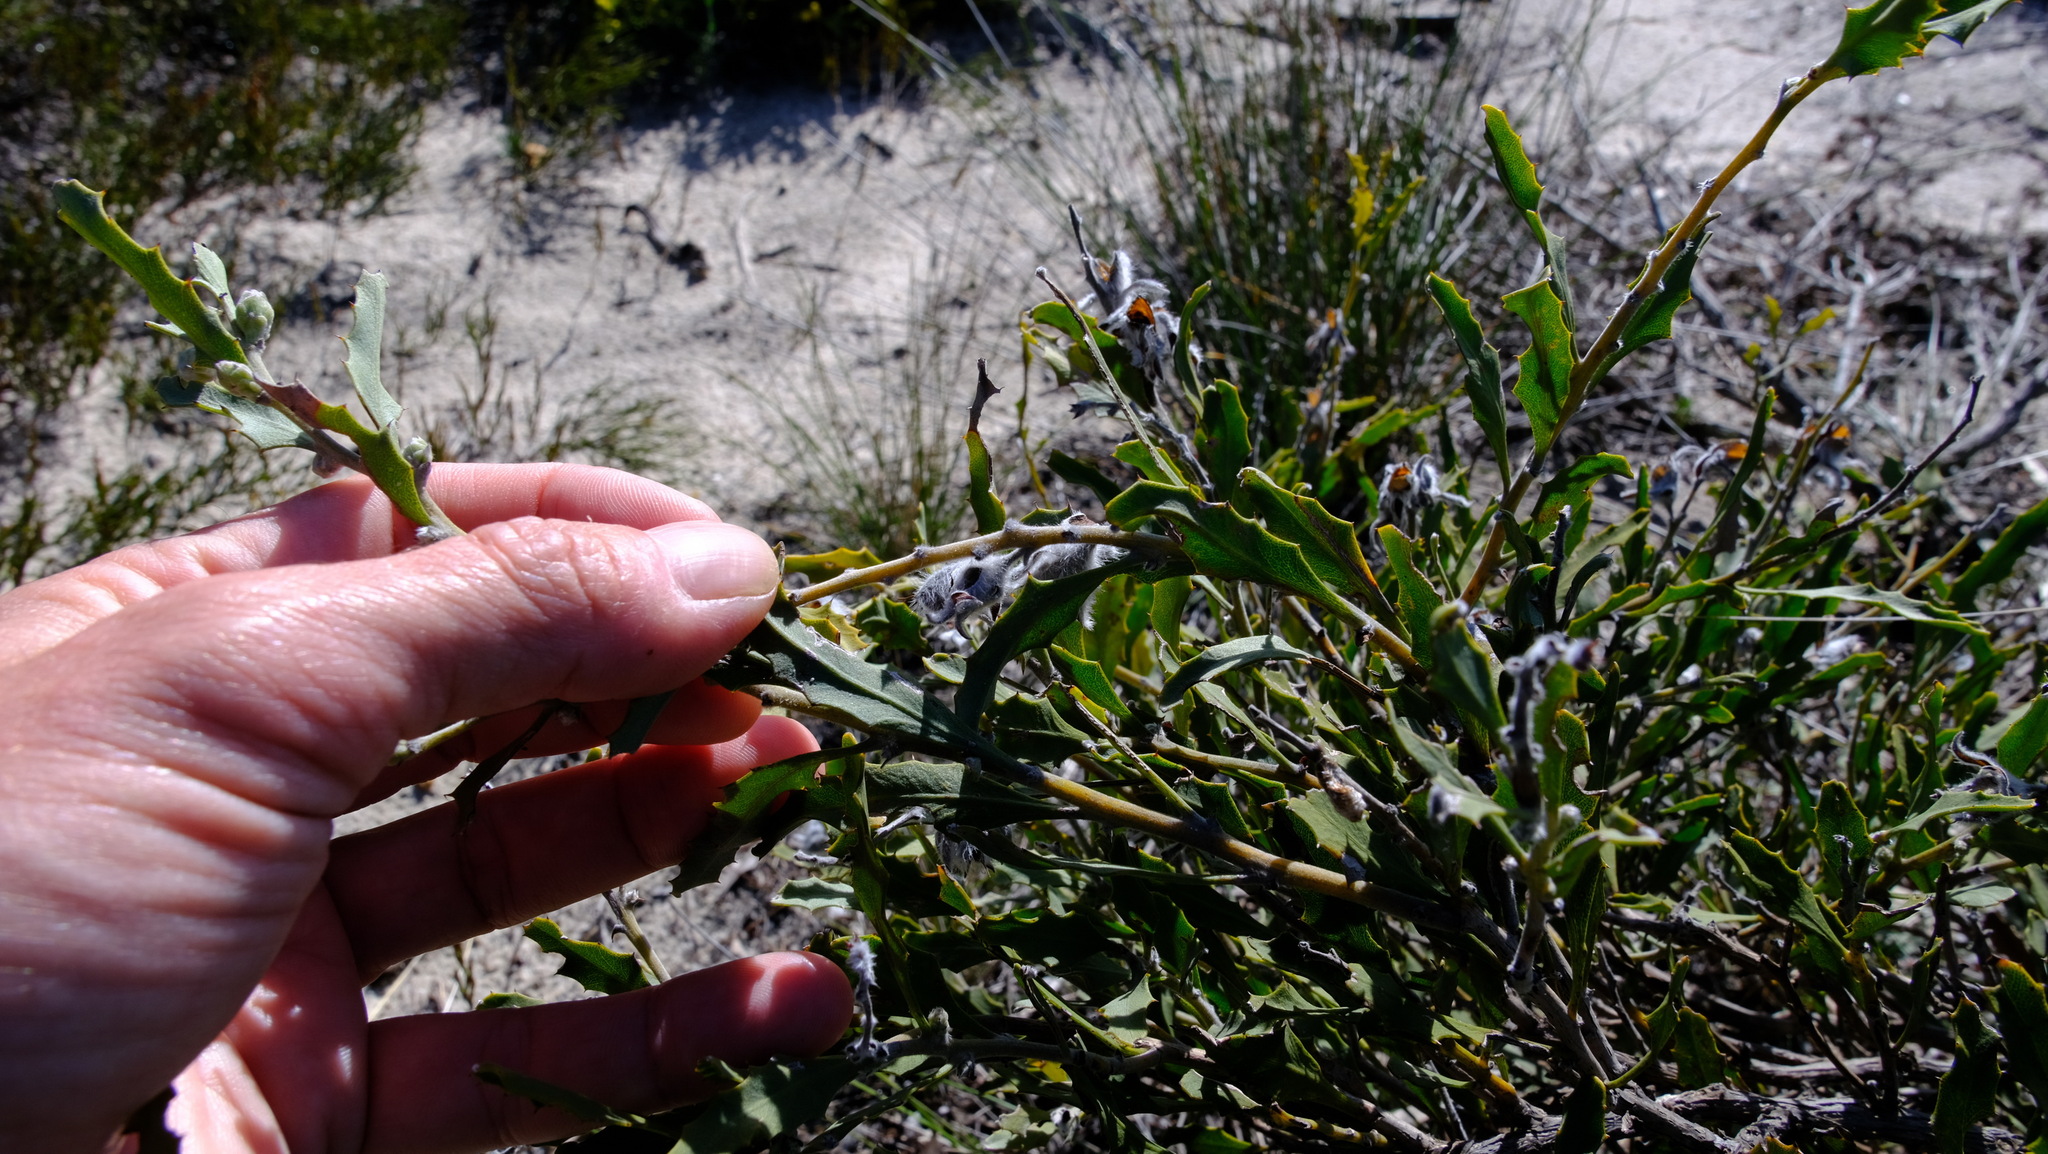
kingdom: Plantae
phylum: Tracheophyta
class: Magnoliopsida
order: Fabales
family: Fabaceae
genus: Jacksonia
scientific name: Jacksonia floribunda
